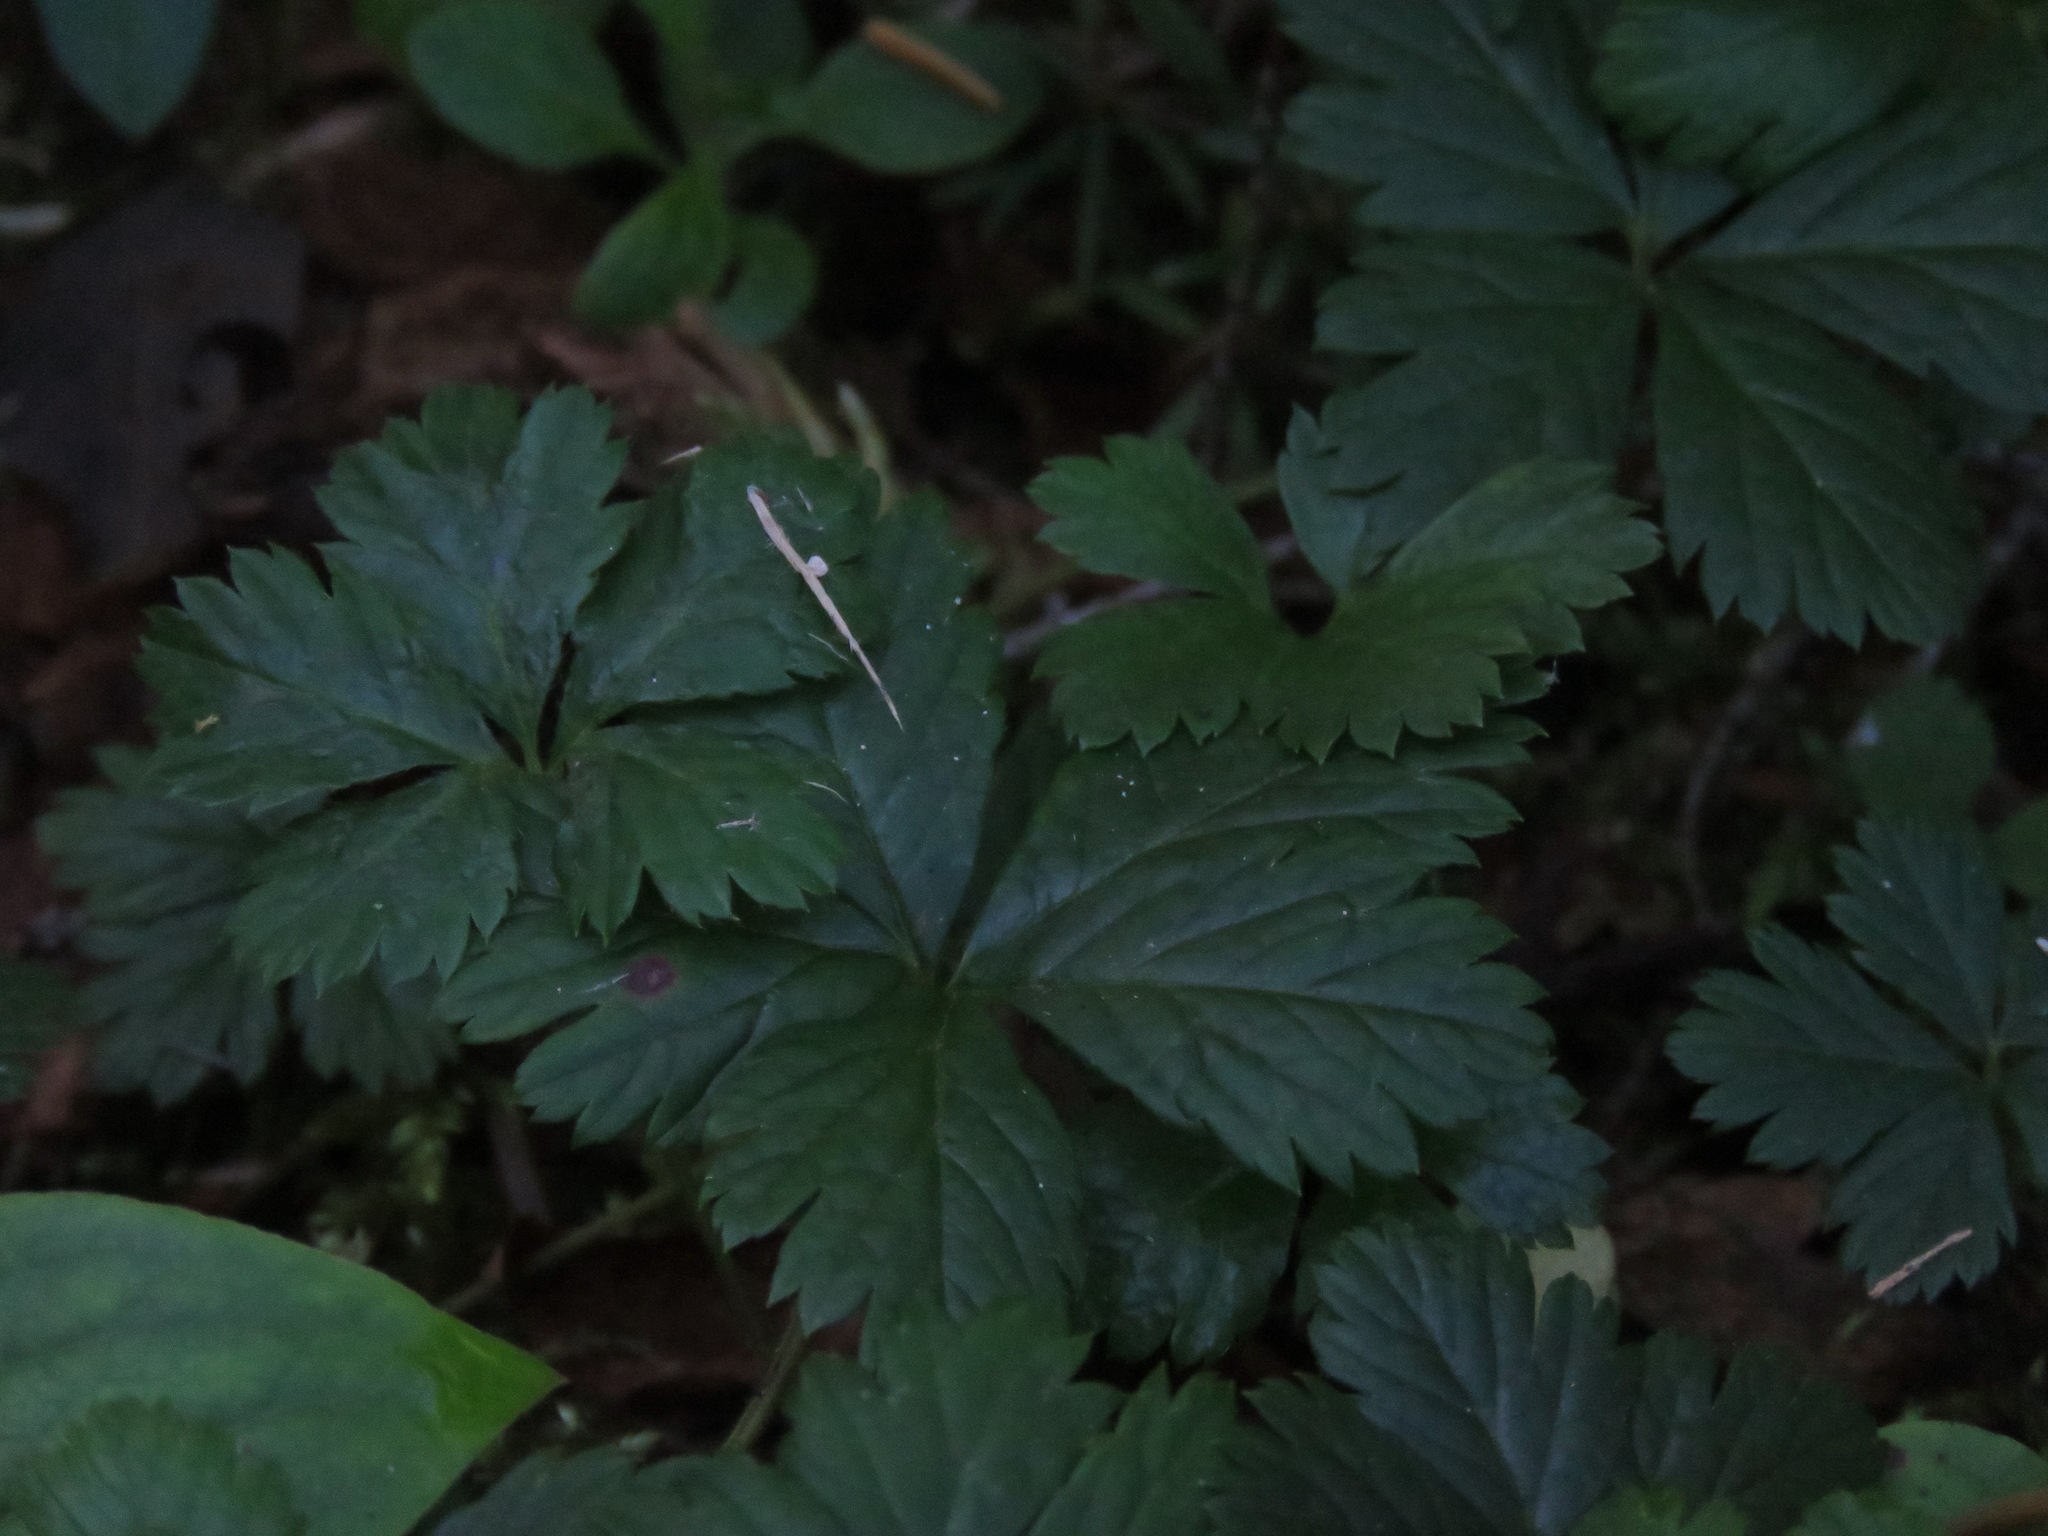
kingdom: Plantae
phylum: Tracheophyta
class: Magnoliopsida
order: Rosales
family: Rosaceae
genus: Rubus
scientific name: Rubus pedatus
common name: Creeping raspberry
